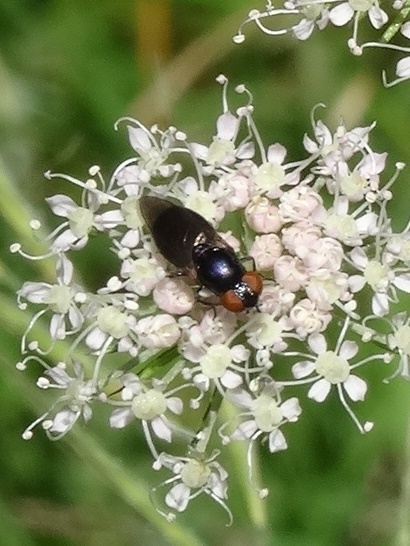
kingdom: Animalia
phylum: Arthropoda
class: Insecta
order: Diptera
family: Syrphidae
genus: Chrysogaster
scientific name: Chrysogaster solstitialis
